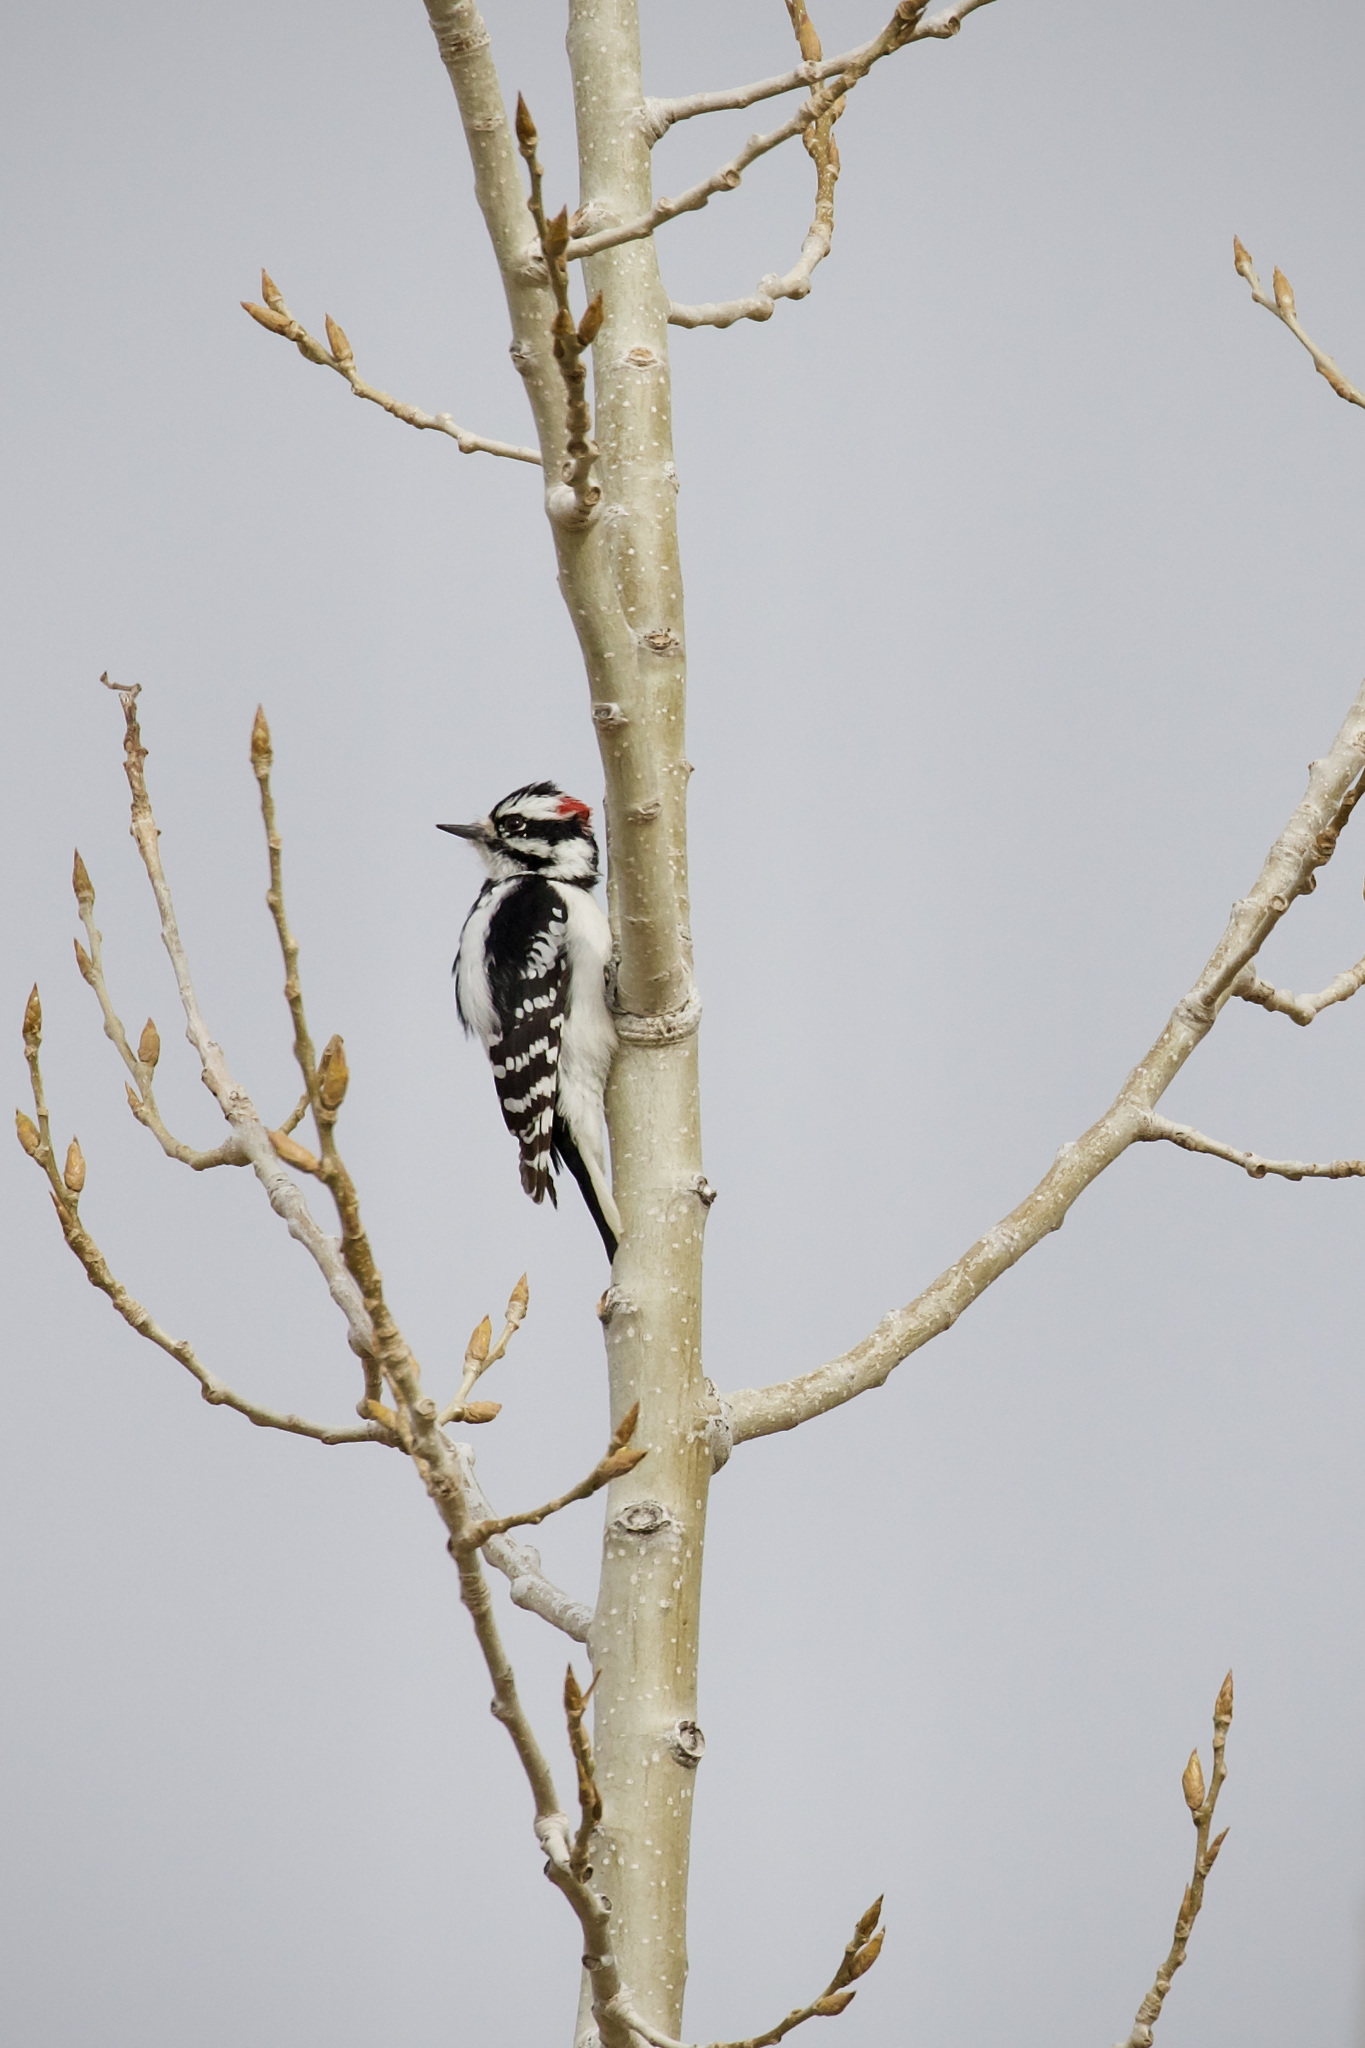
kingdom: Animalia
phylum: Chordata
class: Aves
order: Piciformes
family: Picidae
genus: Dryobates
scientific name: Dryobates pubescens
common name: Downy woodpecker
